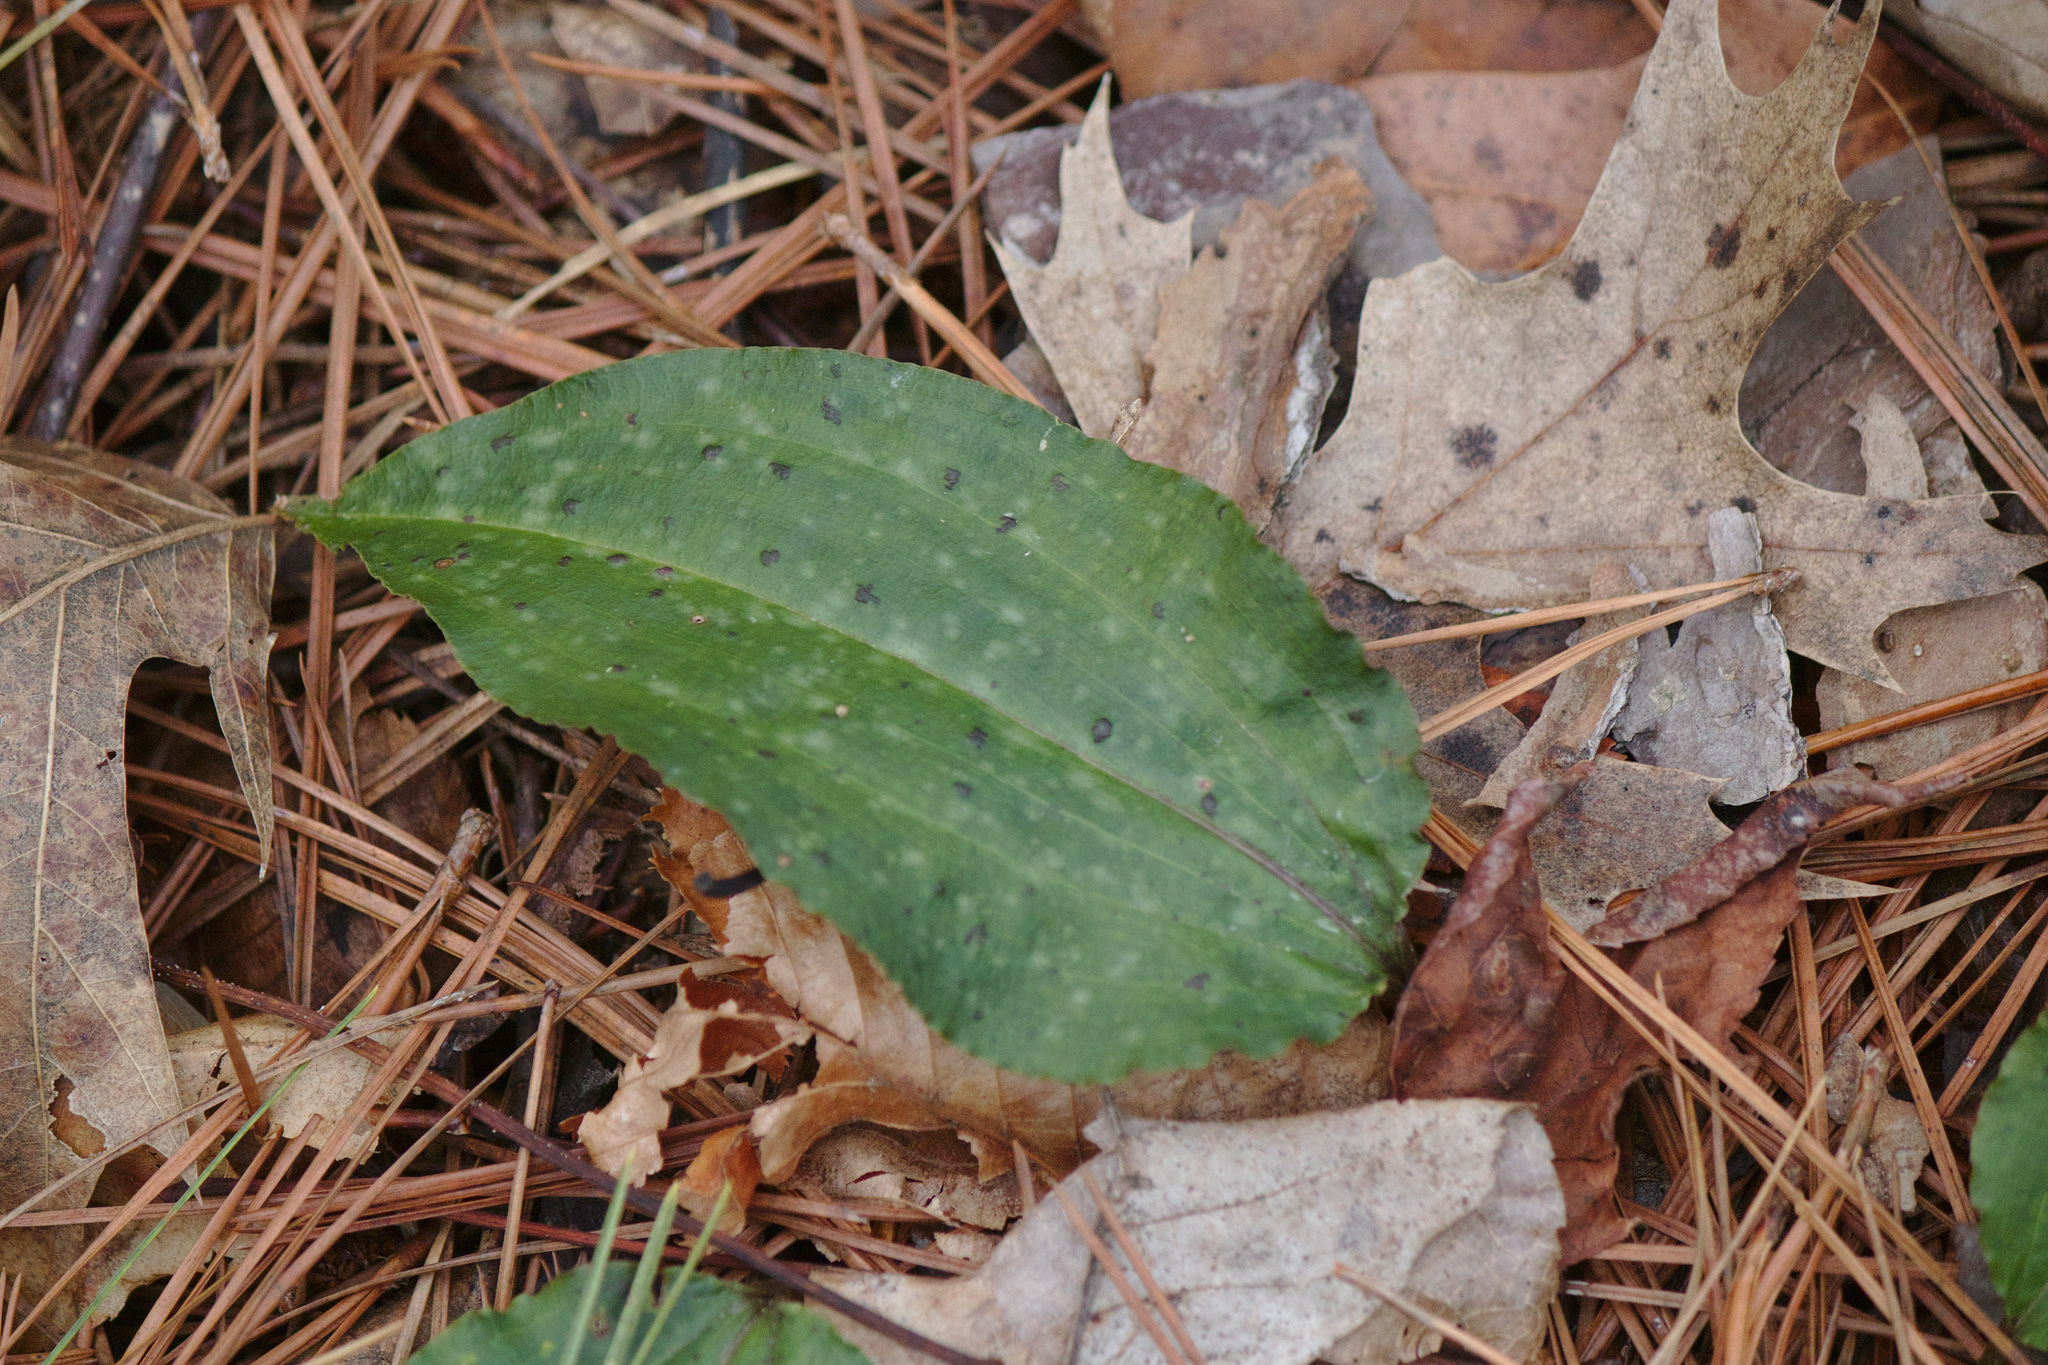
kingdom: Plantae
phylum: Tracheophyta
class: Liliopsida
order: Asparagales
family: Orchidaceae
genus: Tipularia
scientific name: Tipularia discolor
